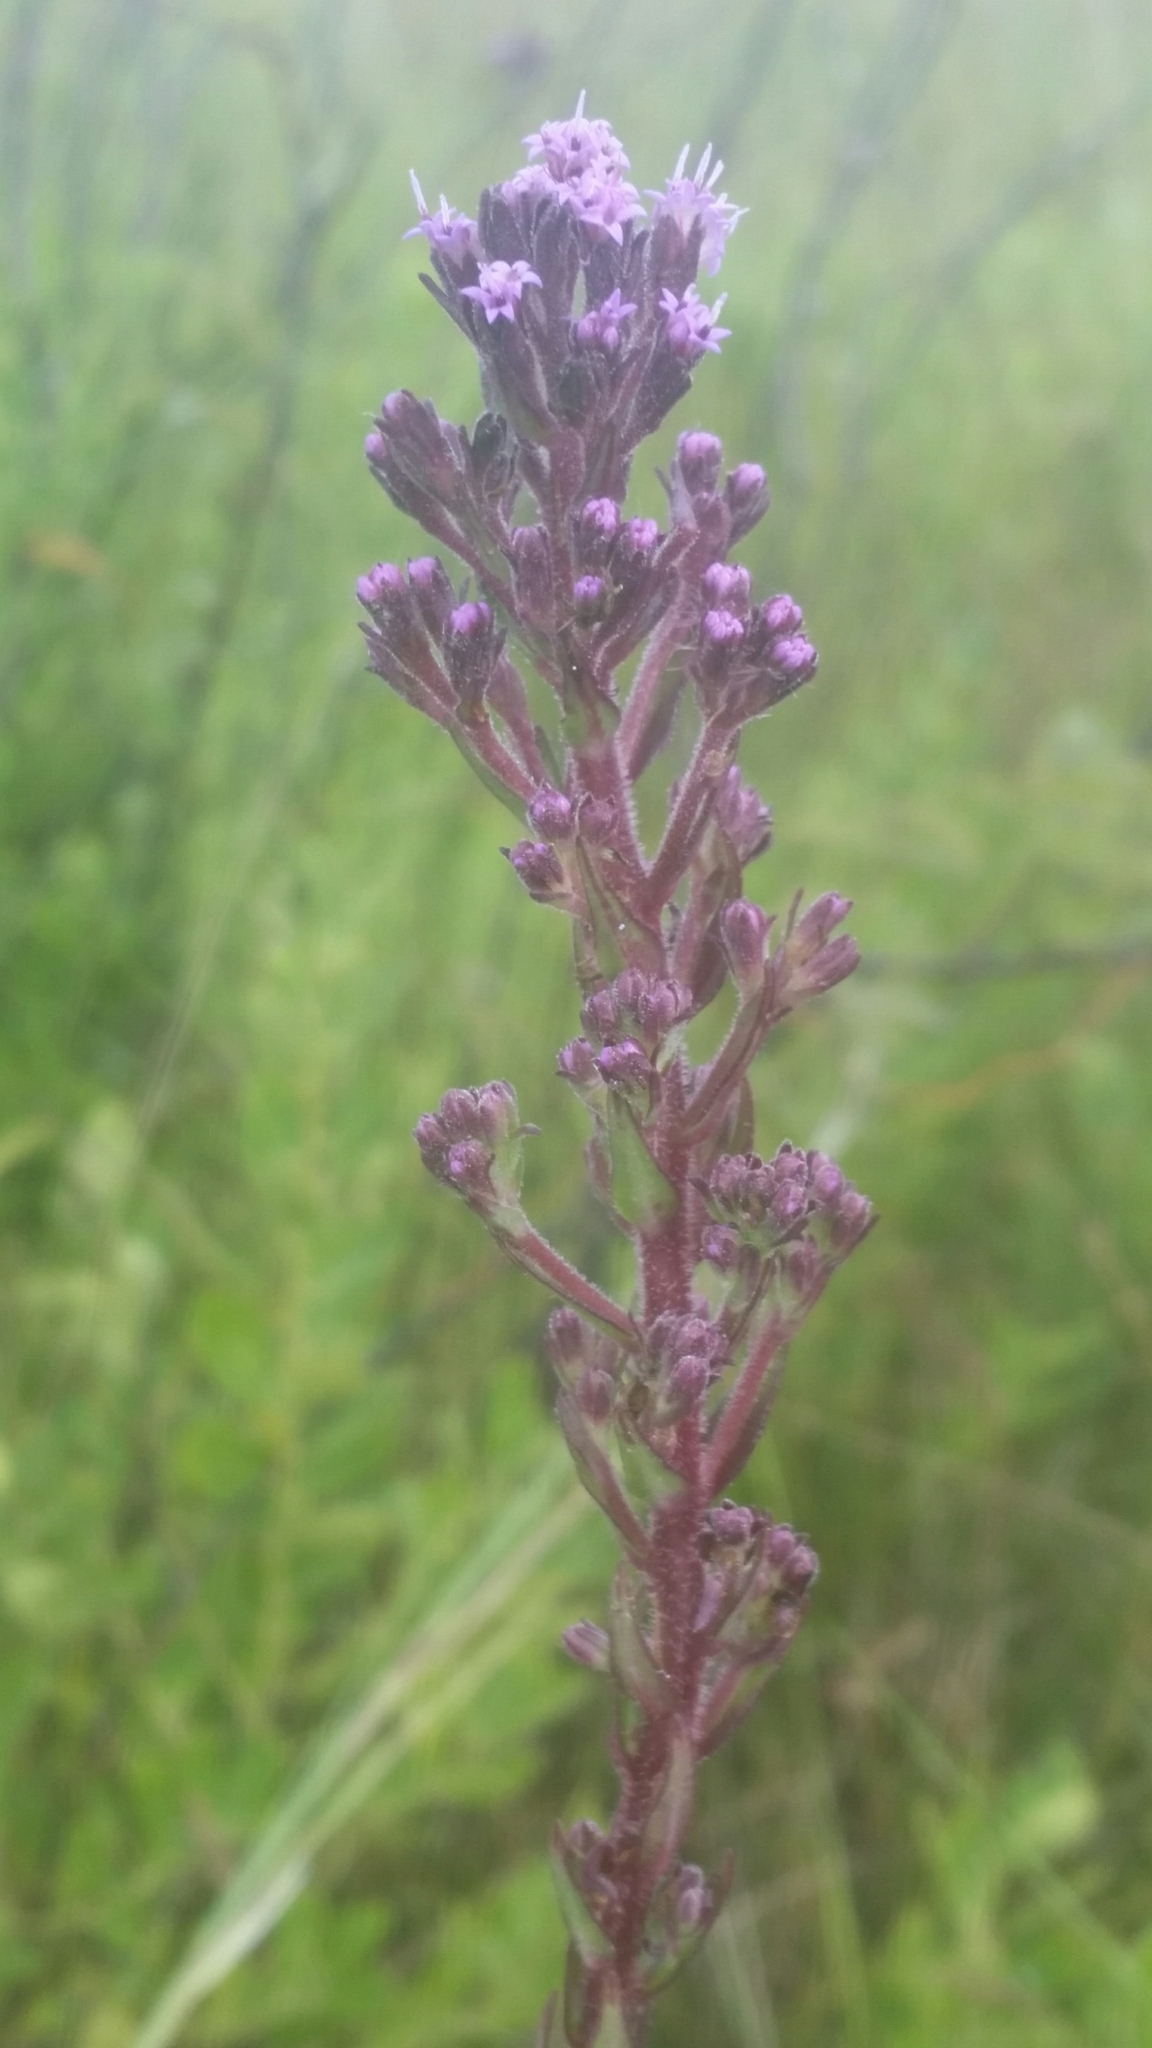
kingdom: Plantae
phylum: Tracheophyta
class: Magnoliopsida
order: Asterales
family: Asteraceae
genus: Carphephorus
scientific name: Carphephorus paniculatus
